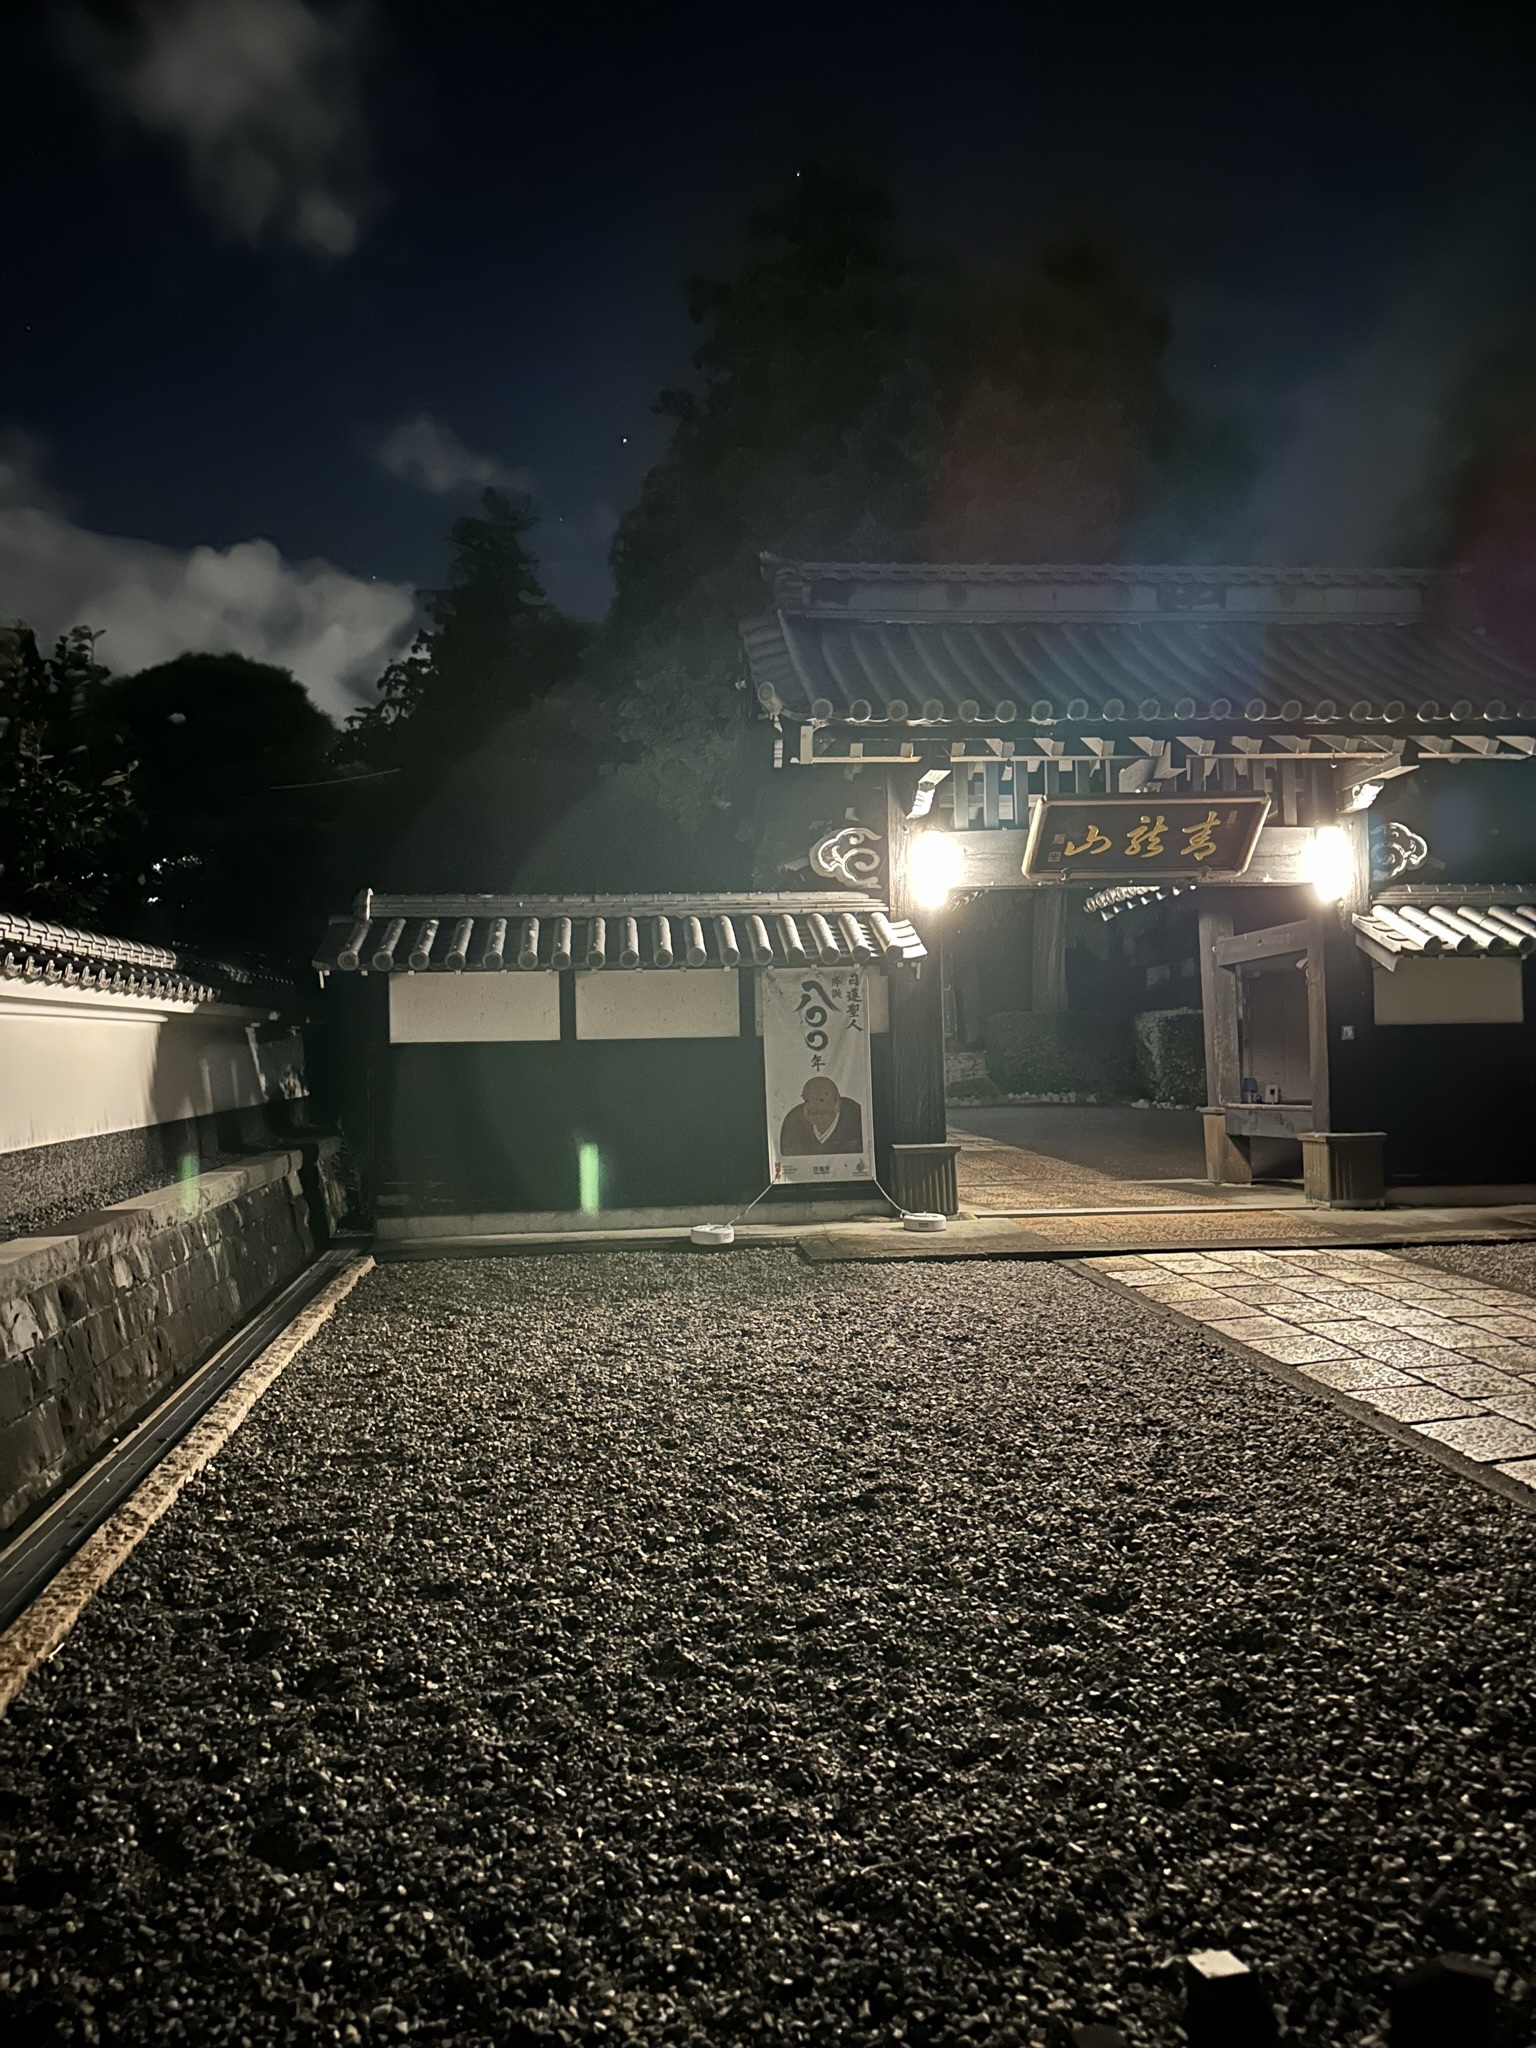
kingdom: Animalia
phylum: Arthropoda
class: Insecta
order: Orthoptera
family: Gryllidae
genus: Truljalia
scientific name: Truljalia hibinonis
